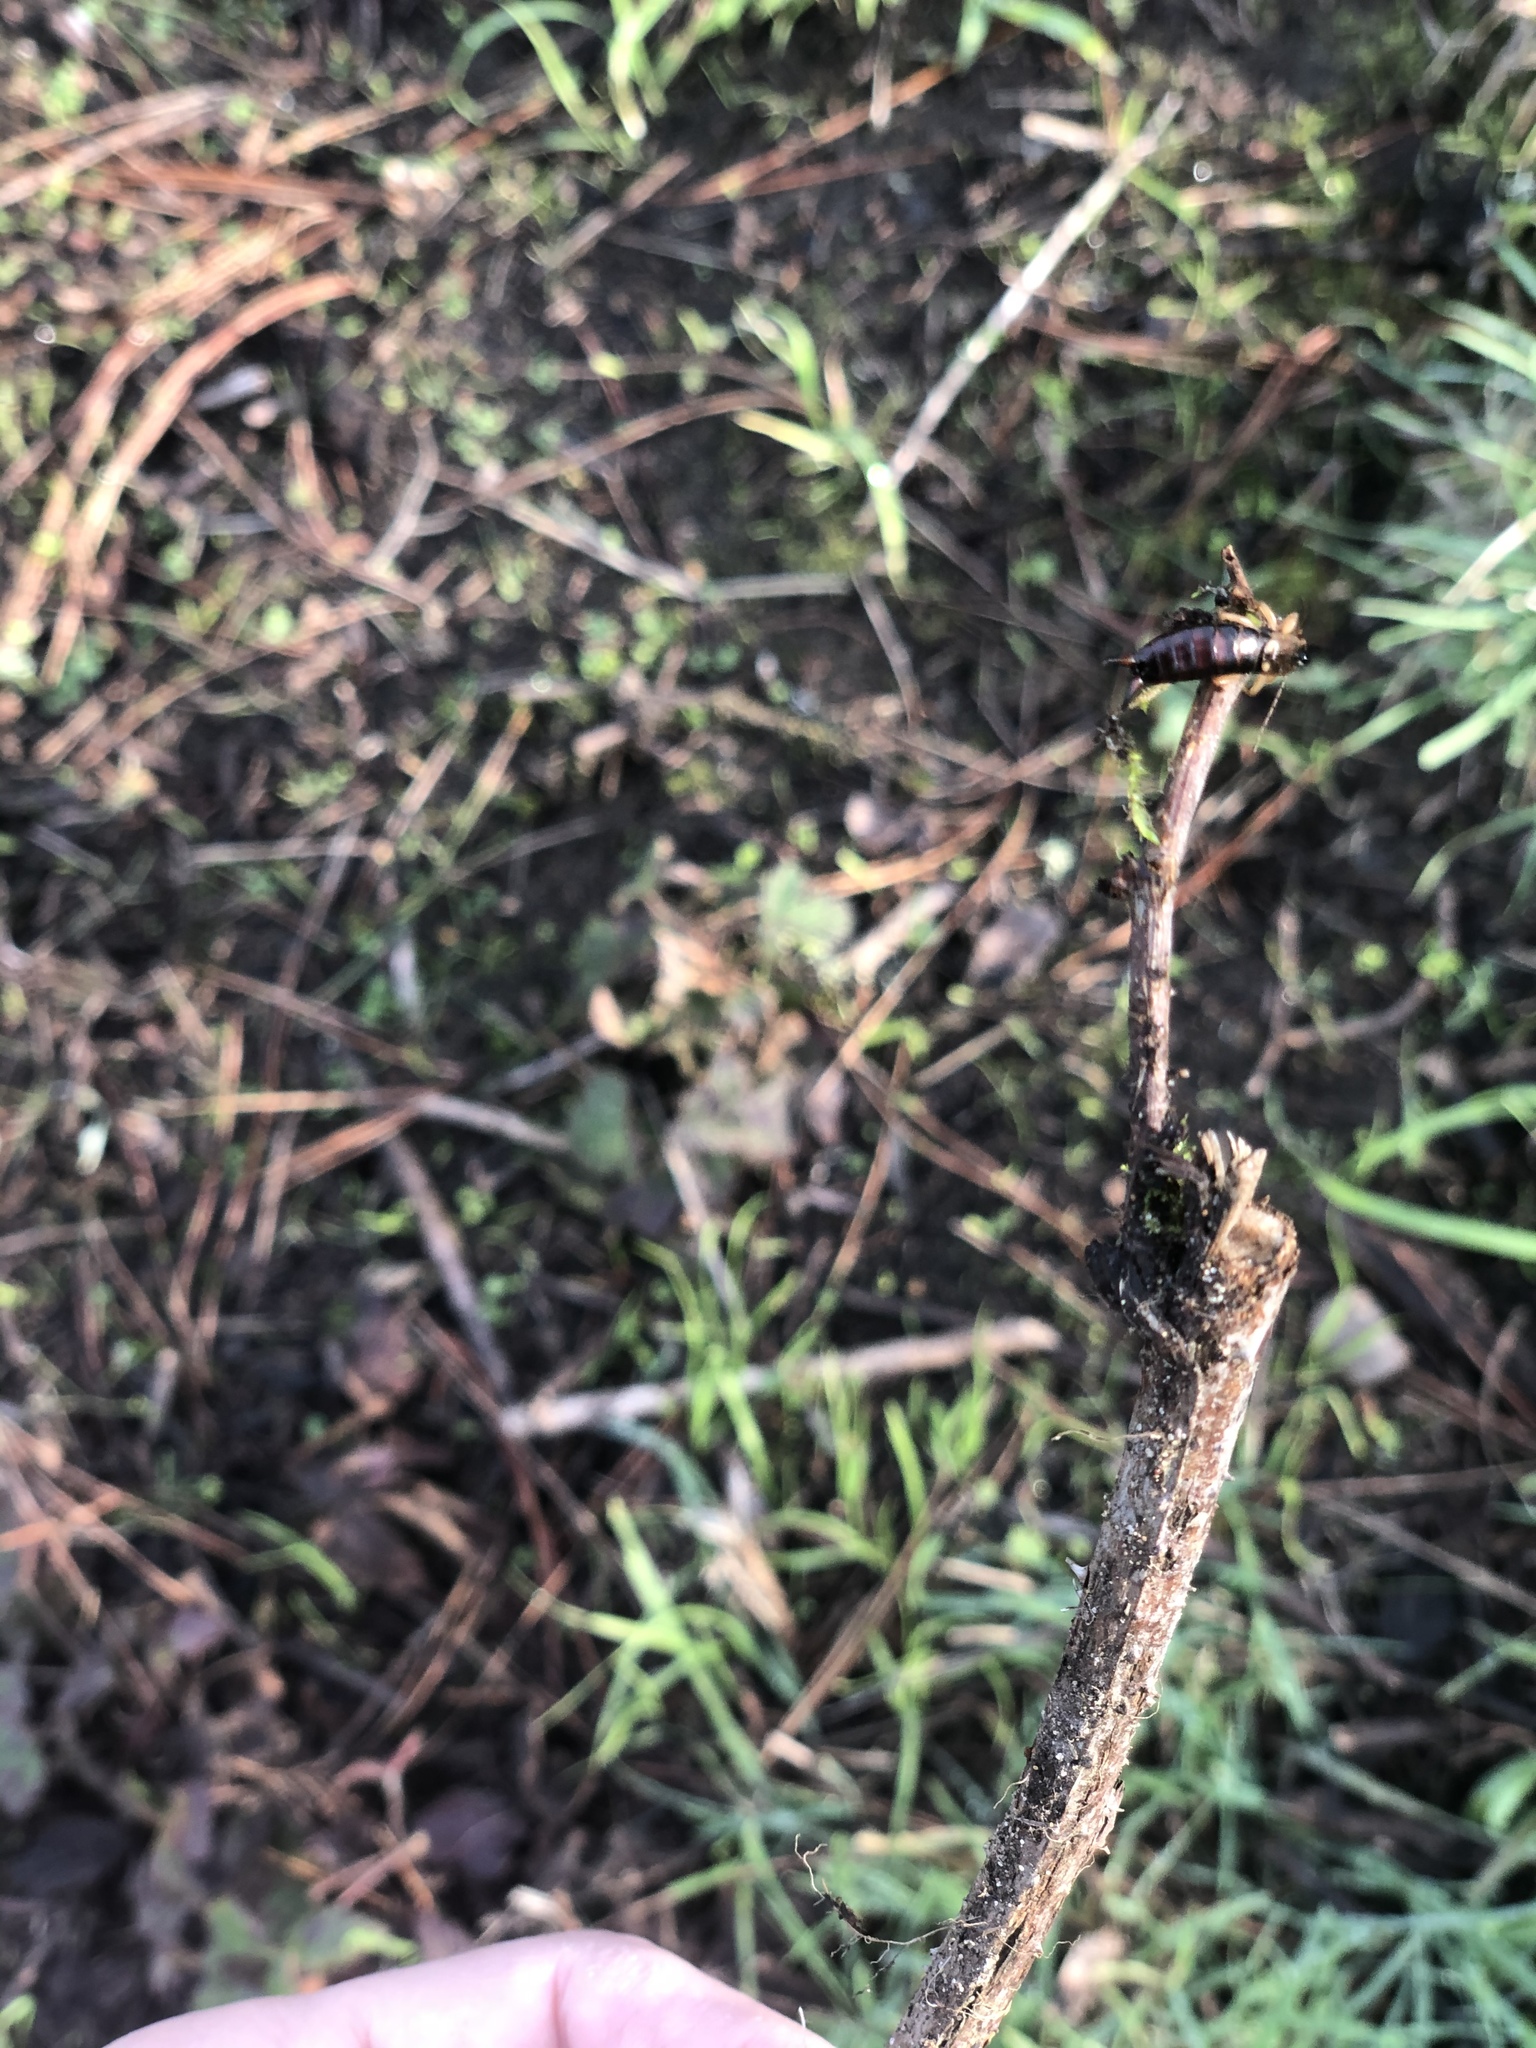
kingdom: Animalia
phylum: Arthropoda
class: Insecta
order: Dermaptera
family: Forficulidae
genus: Forficula
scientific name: Forficula
